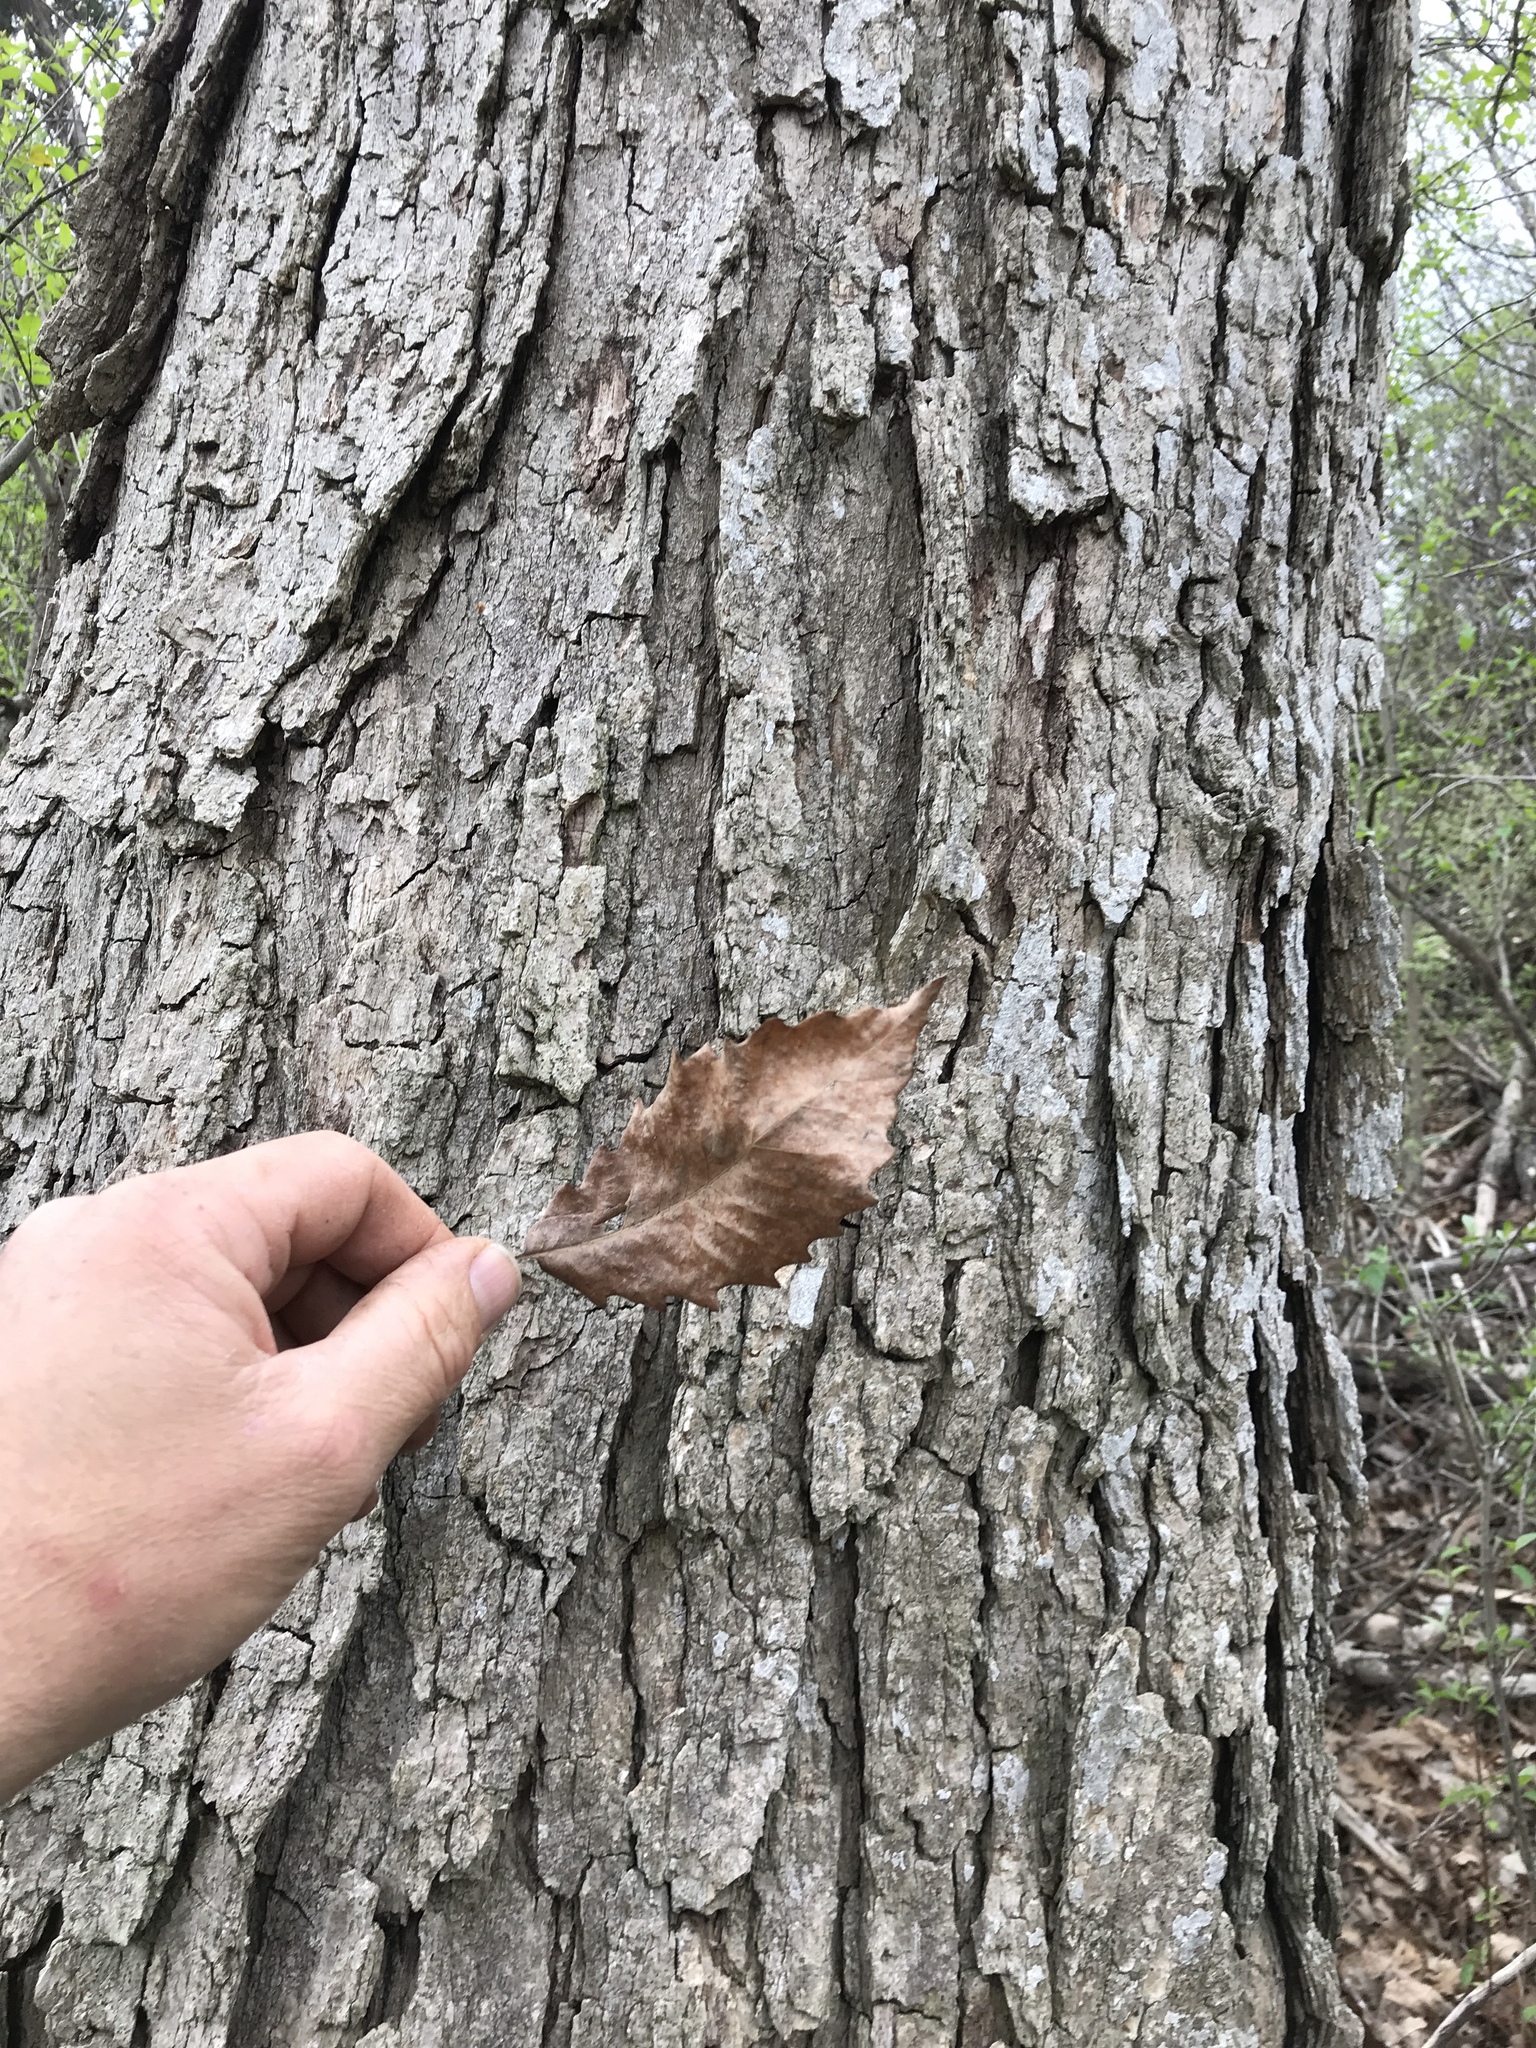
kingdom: Plantae
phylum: Tracheophyta
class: Magnoliopsida
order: Fagales
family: Fagaceae
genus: Quercus
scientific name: Quercus muehlenbergii
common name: Chinkapin oak
